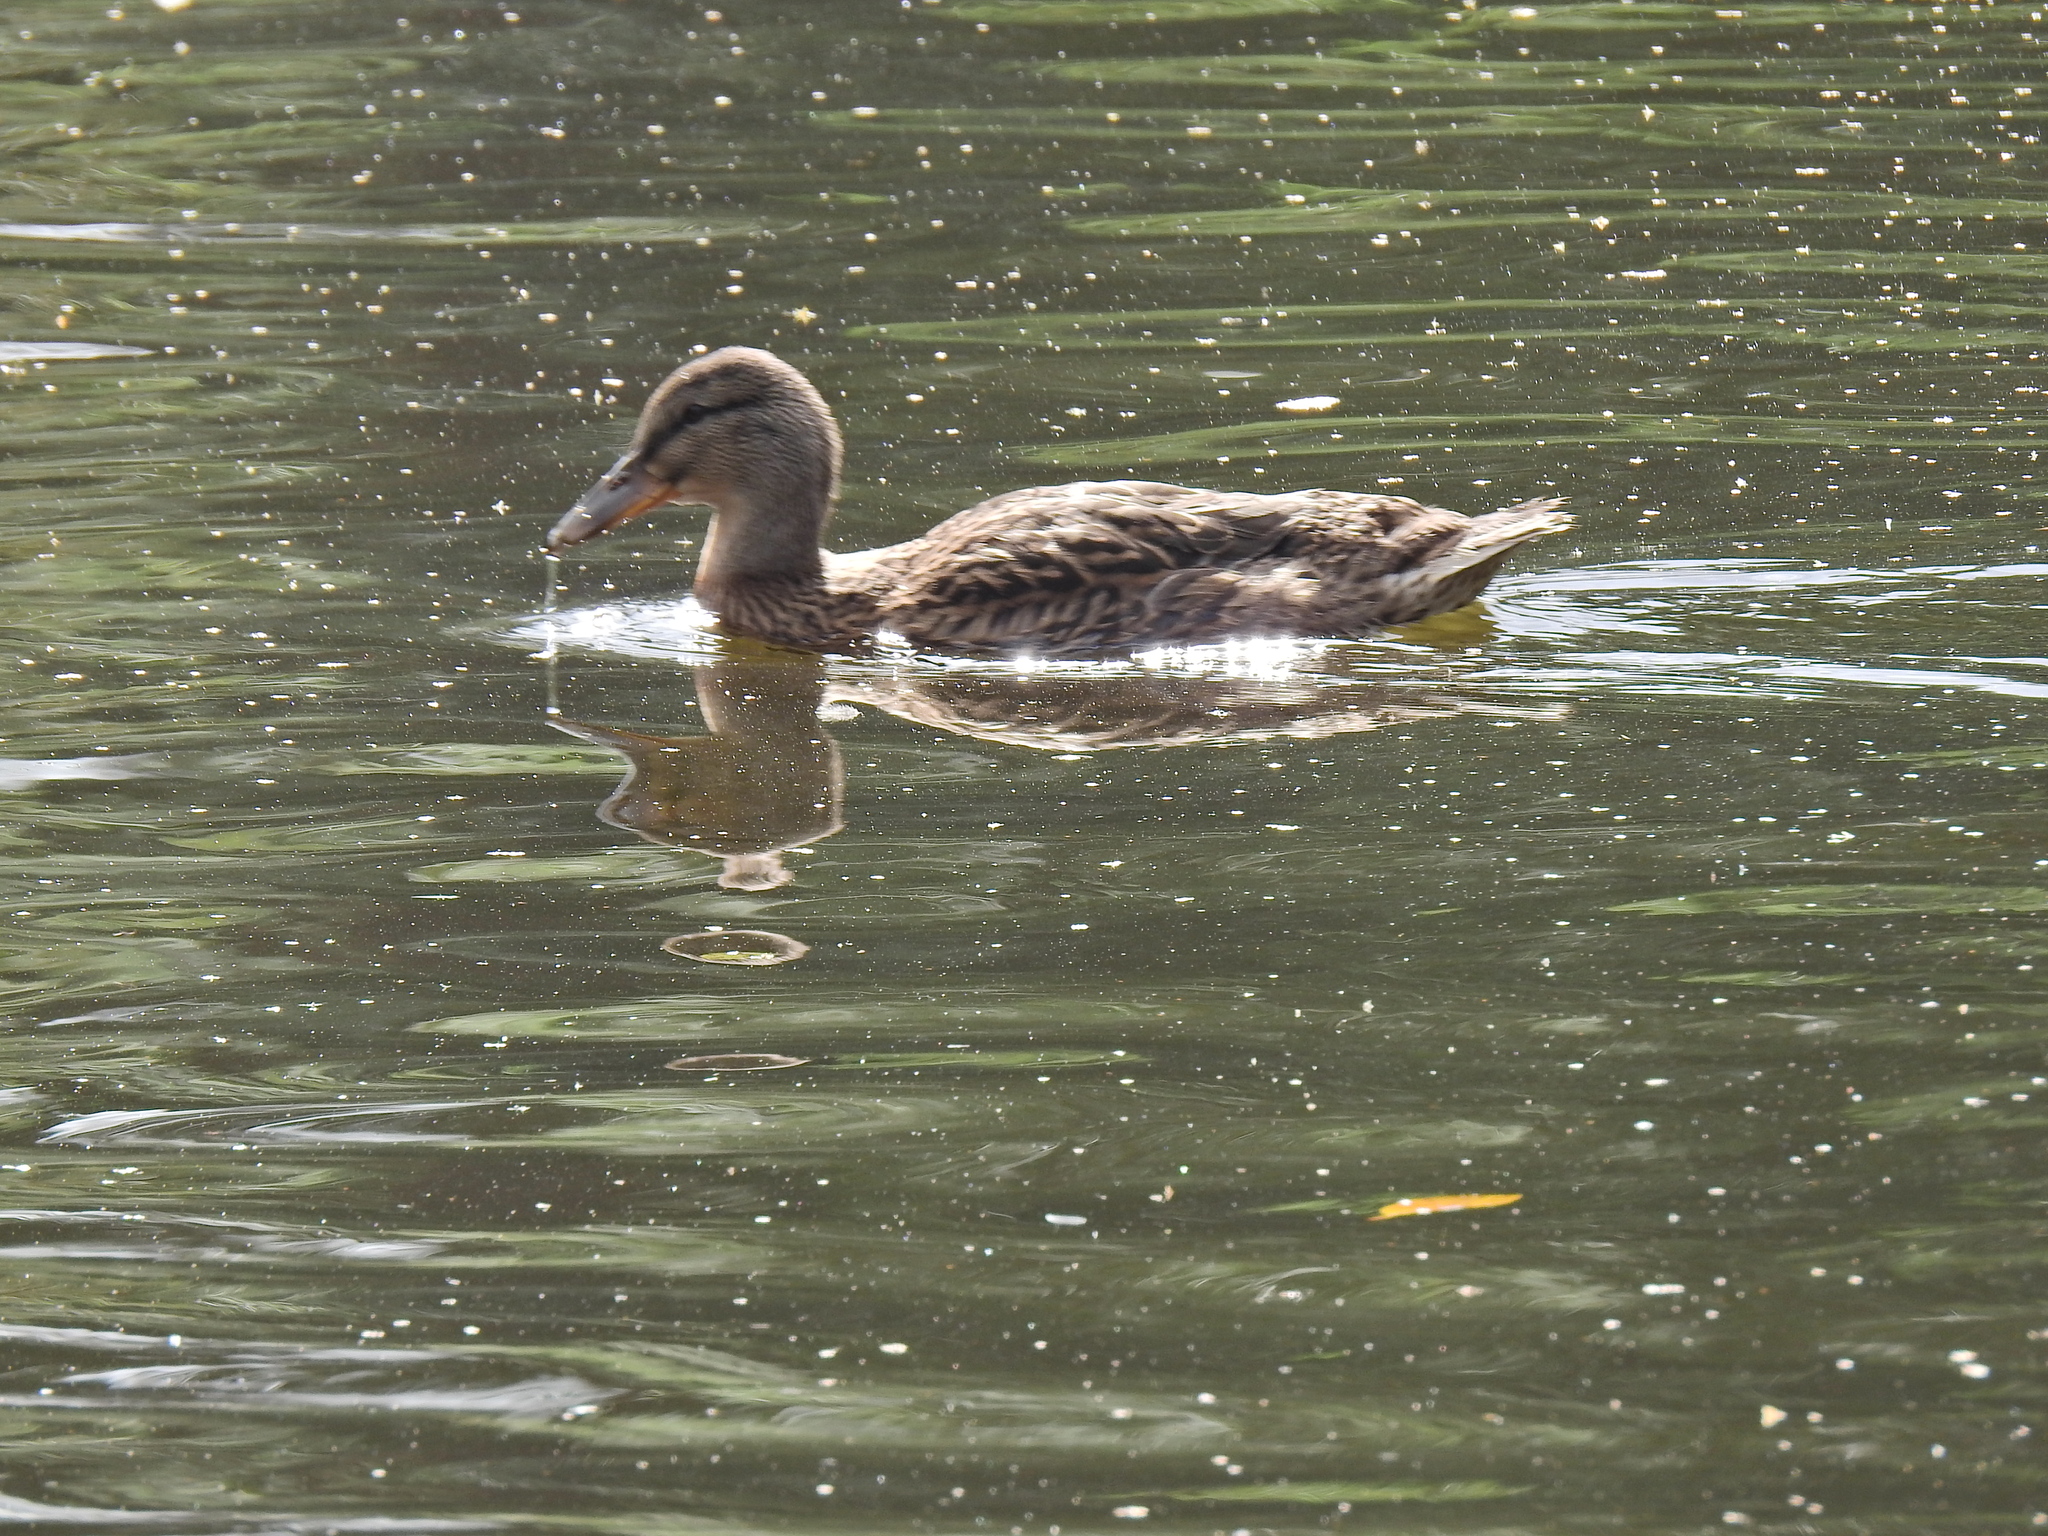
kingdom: Animalia
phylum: Chordata
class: Aves
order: Anseriformes
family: Anatidae
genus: Anas
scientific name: Anas platyrhynchos
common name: Mallard
